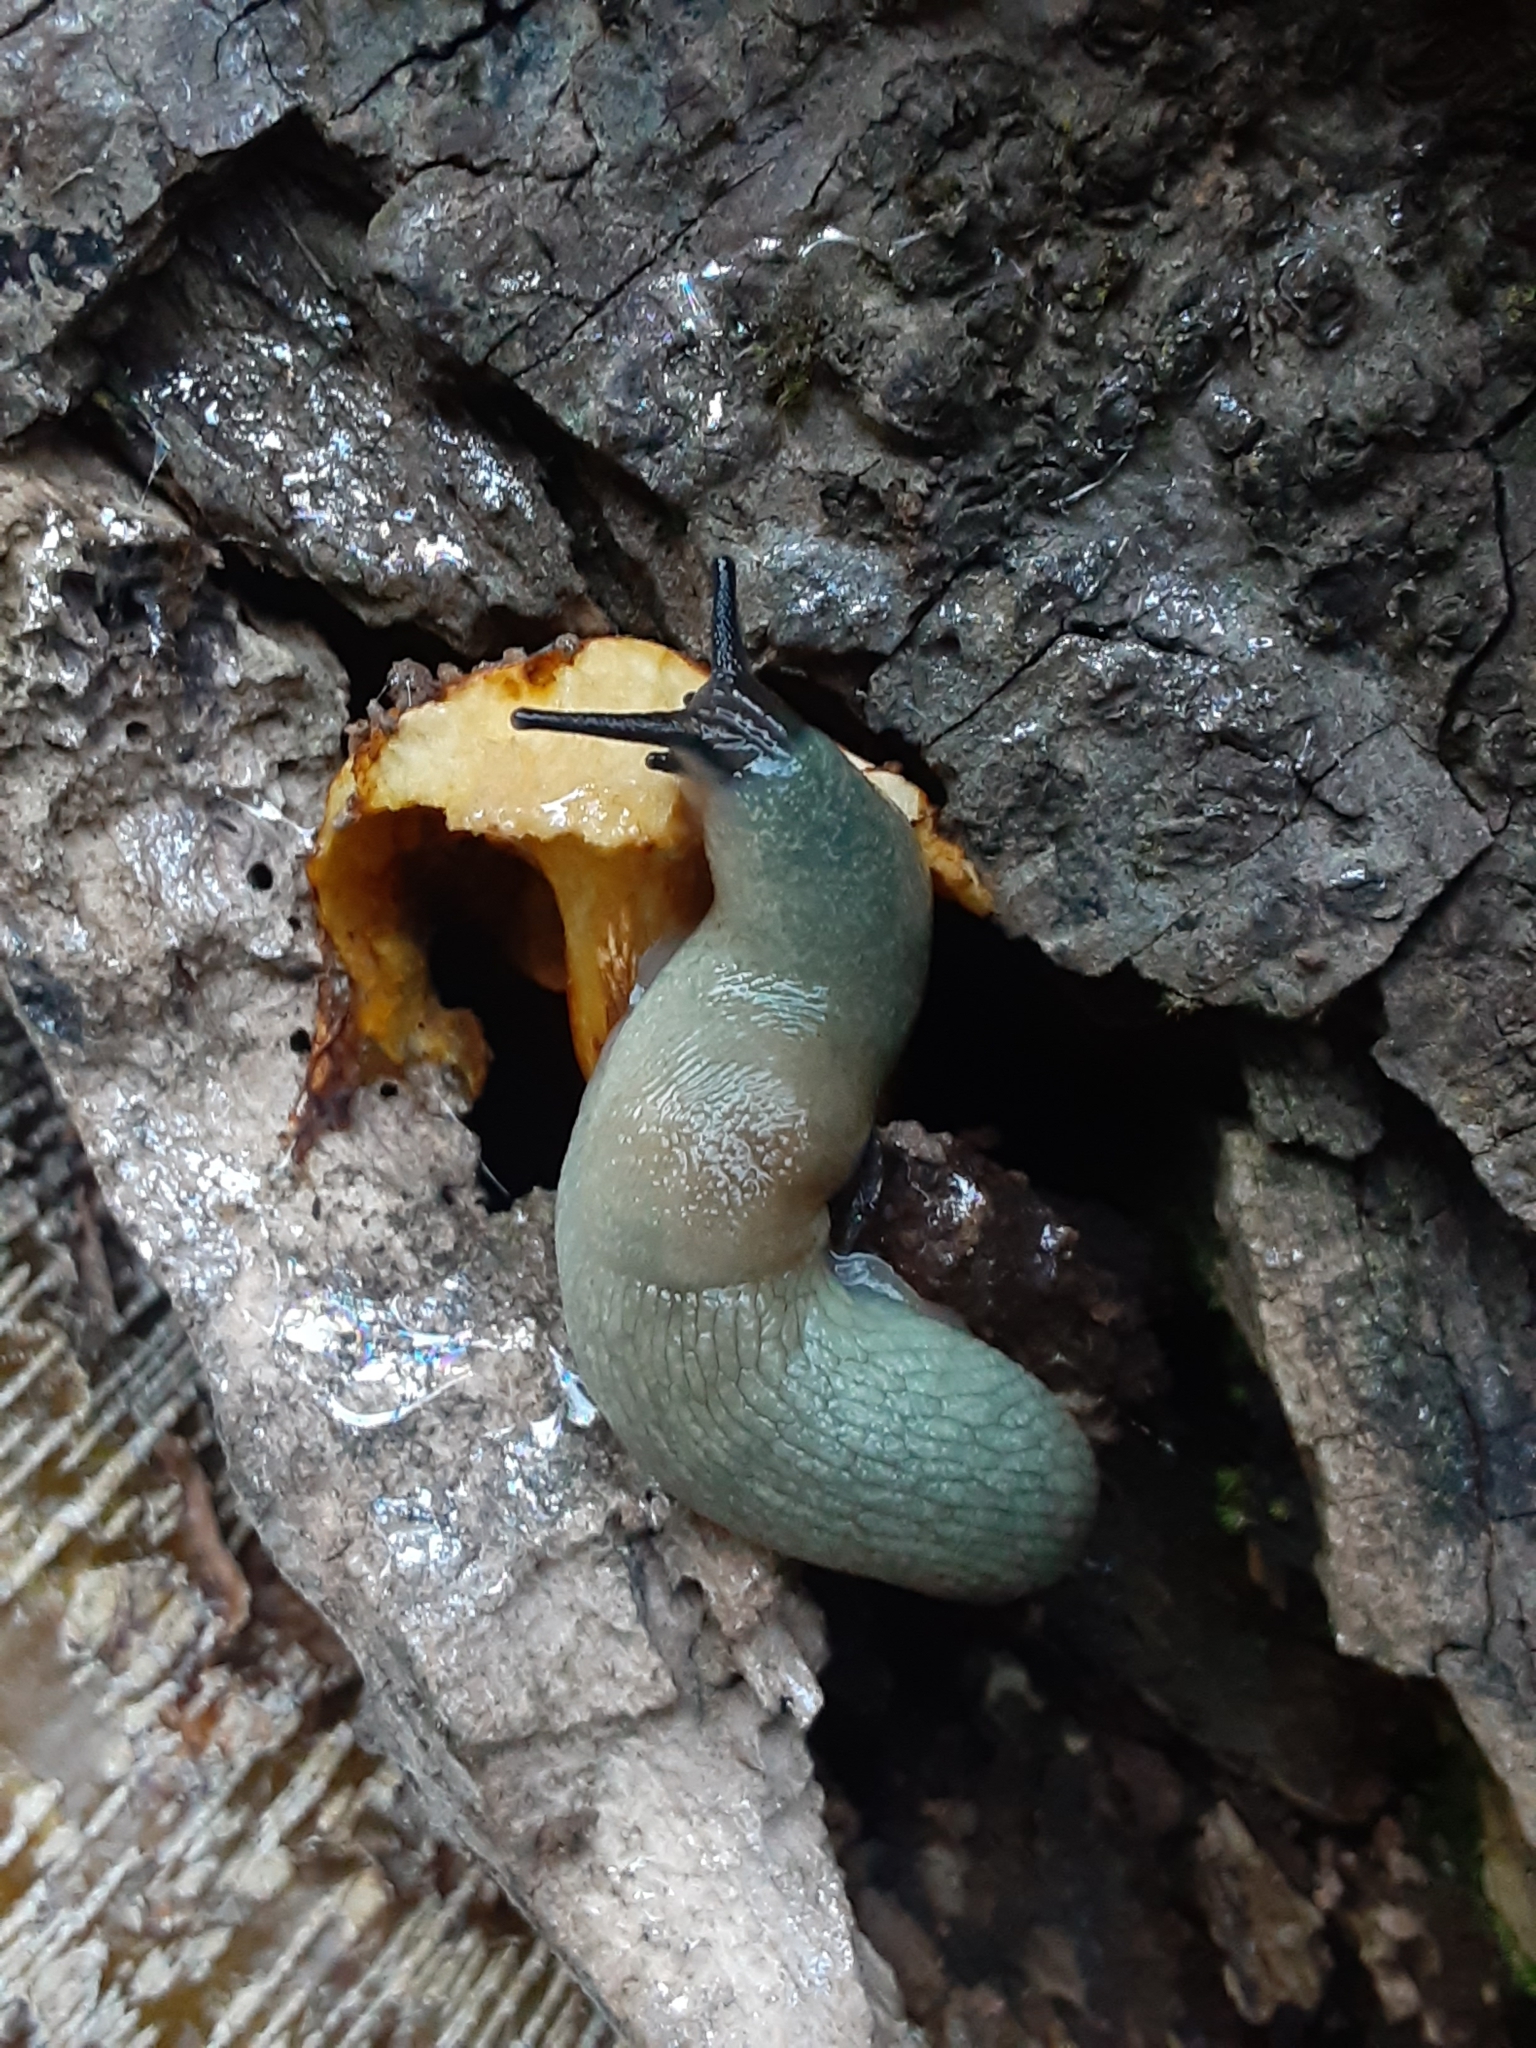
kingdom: Animalia
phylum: Mollusca
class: Gastropoda
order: Stylommatophora
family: Agriolimacidae
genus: Krynickillus
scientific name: Krynickillus melanocephalus
